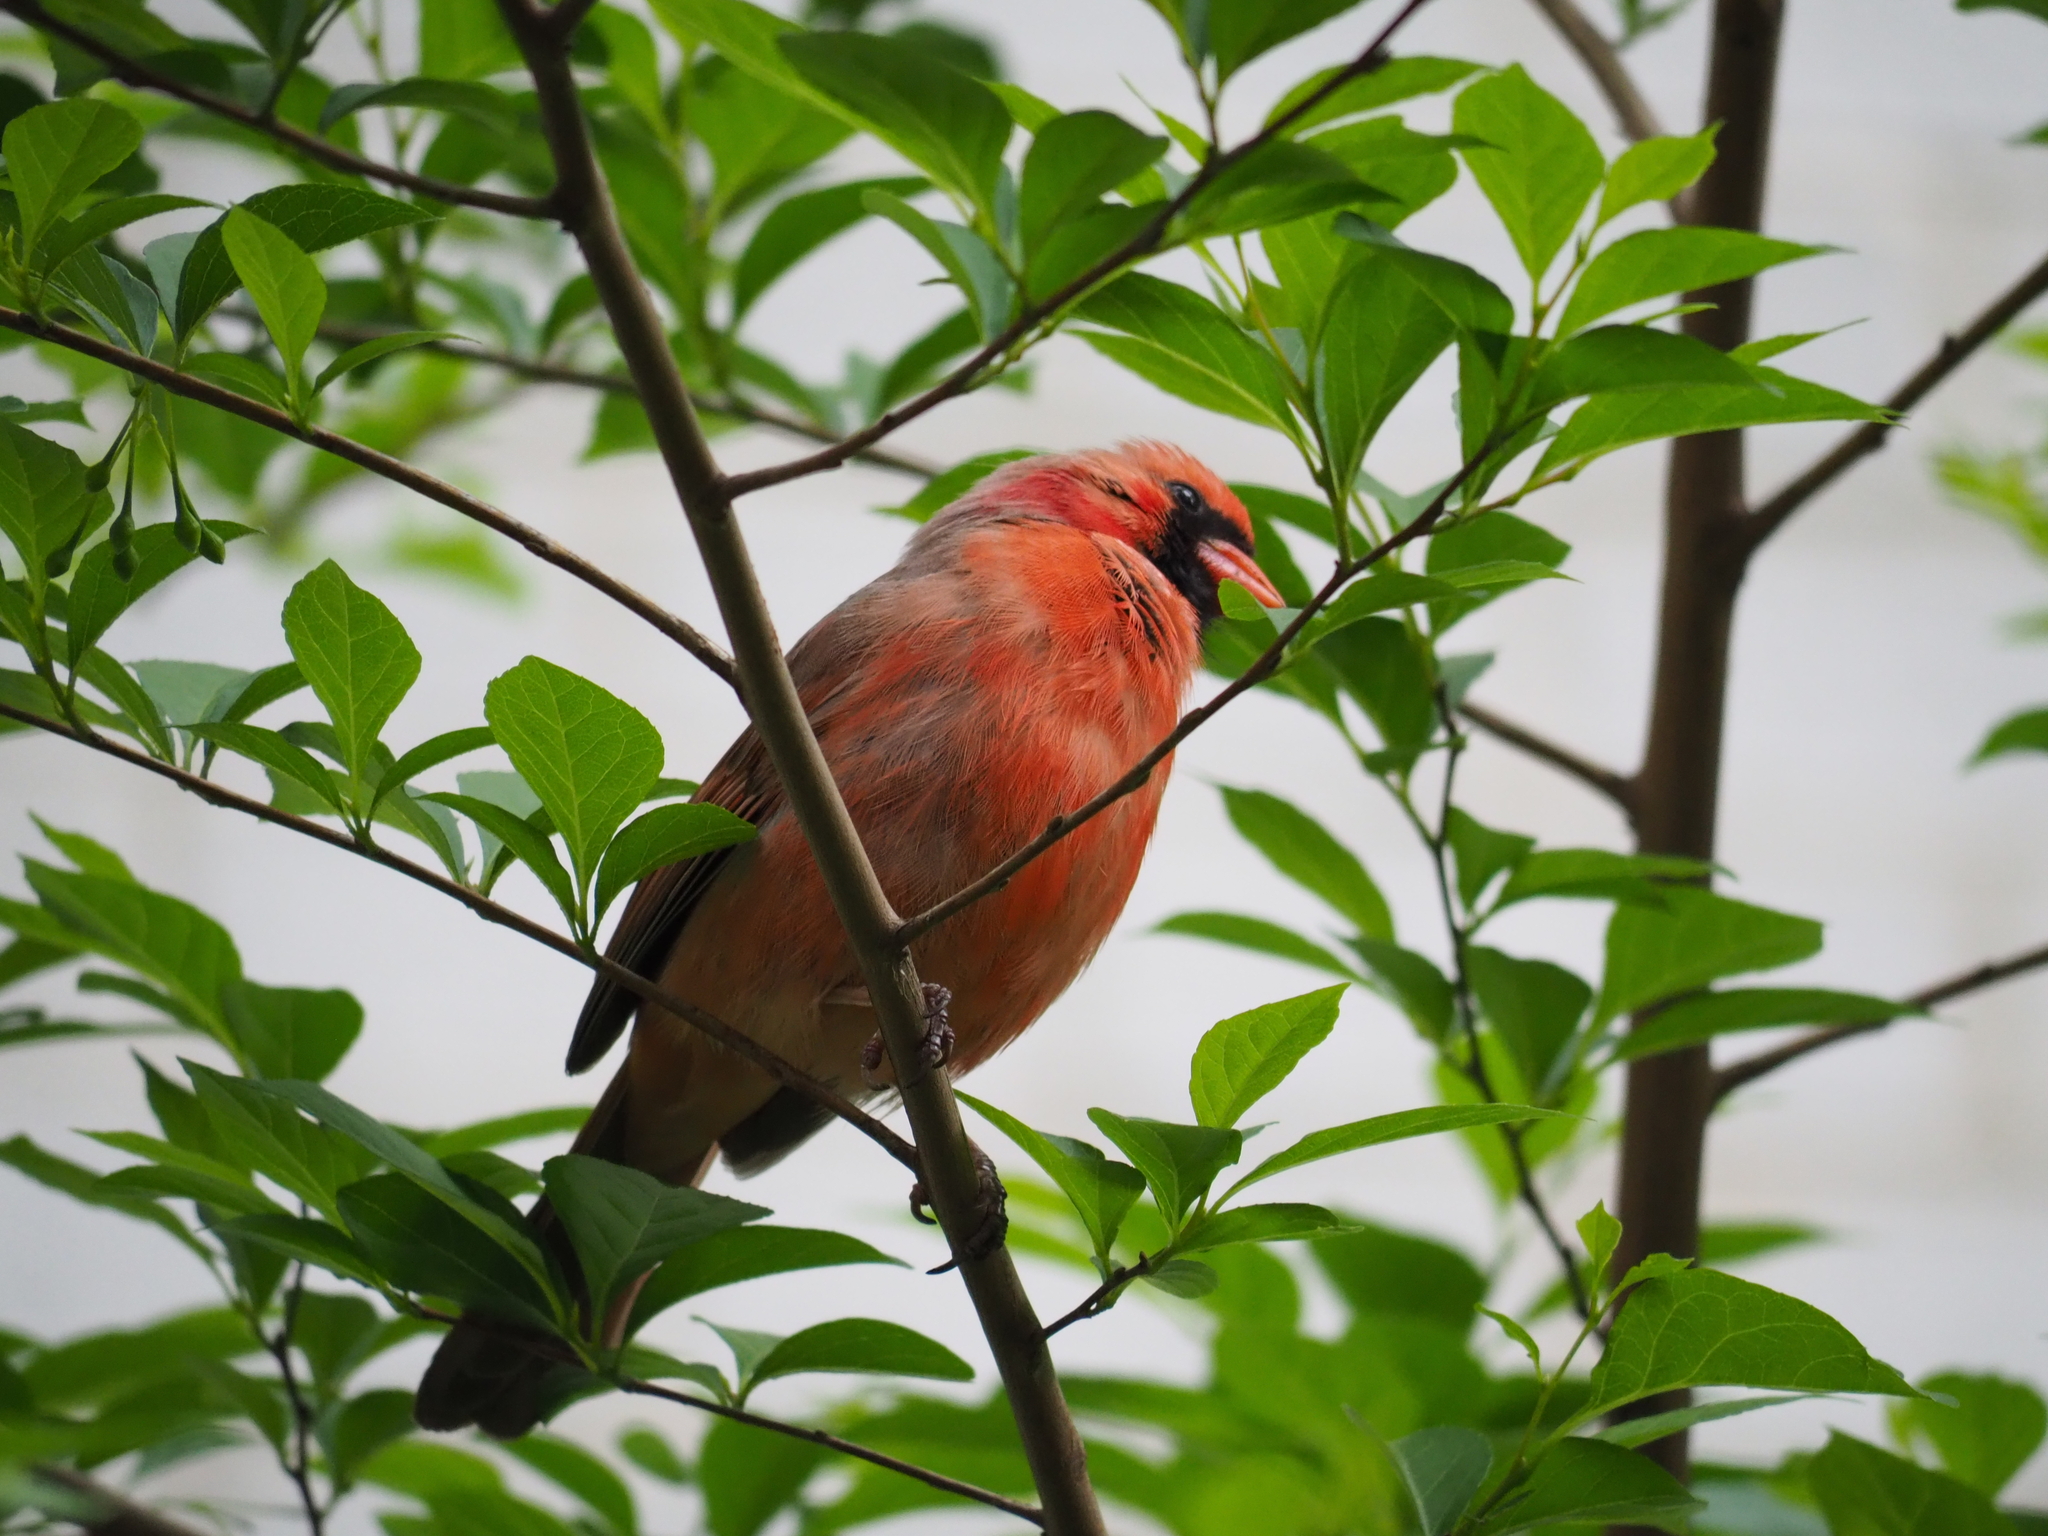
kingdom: Animalia
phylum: Chordata
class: Aves
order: Passeriformes
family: Cardinalidae
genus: Cardinalis
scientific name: Cardinalis cardinalis
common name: Northern cardinal
